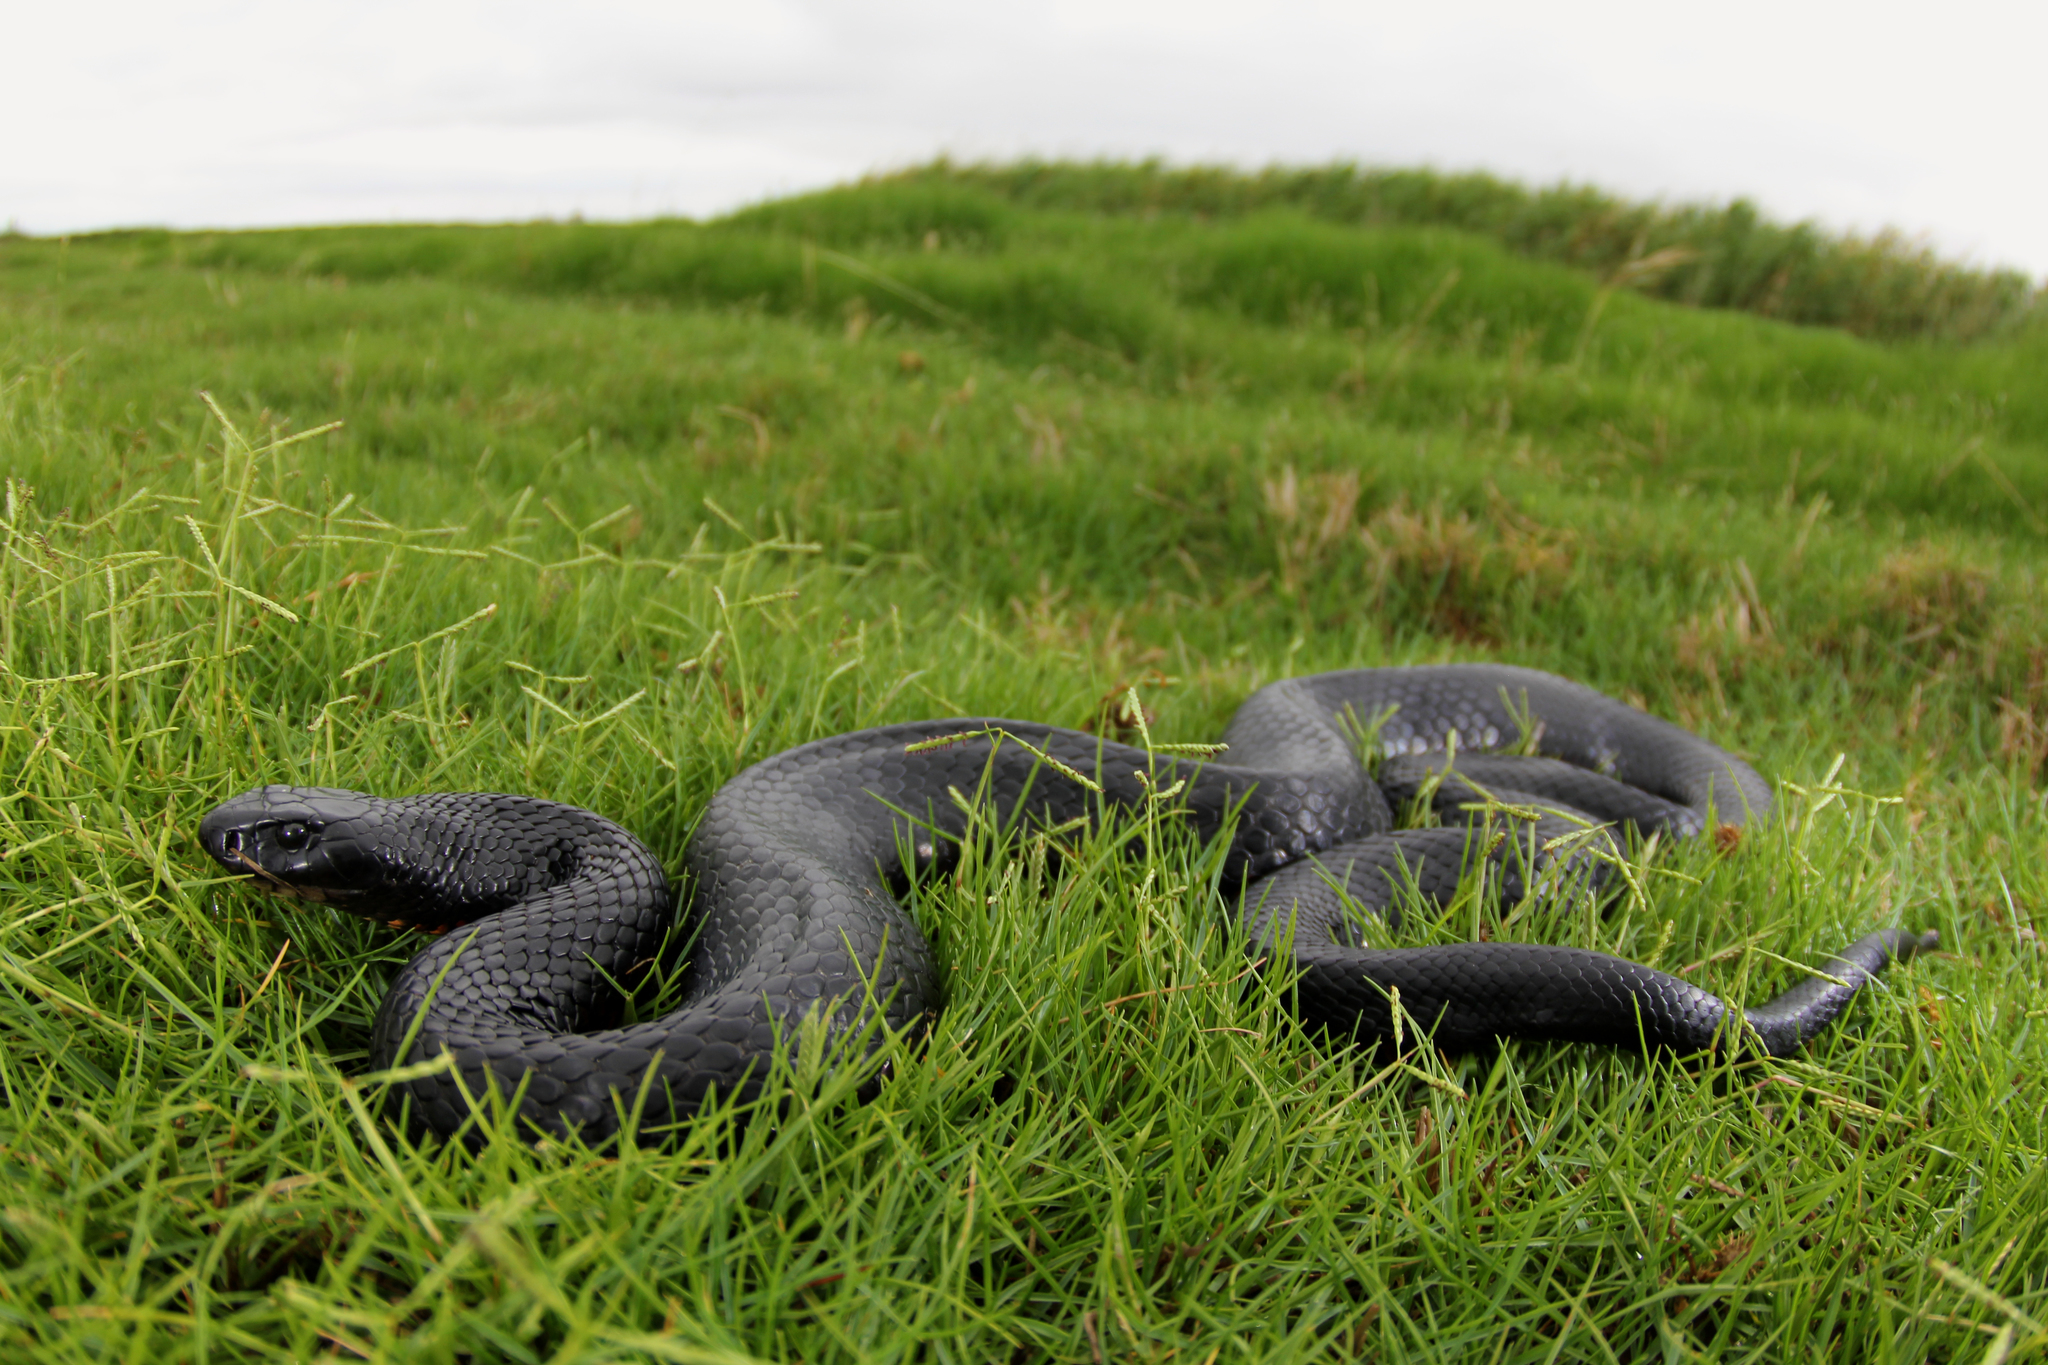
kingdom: Animalia
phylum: Chordata
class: Squamata
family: Elapidae
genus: Pseudechis
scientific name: Pseudechis porphyriacus
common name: Australian black snake
